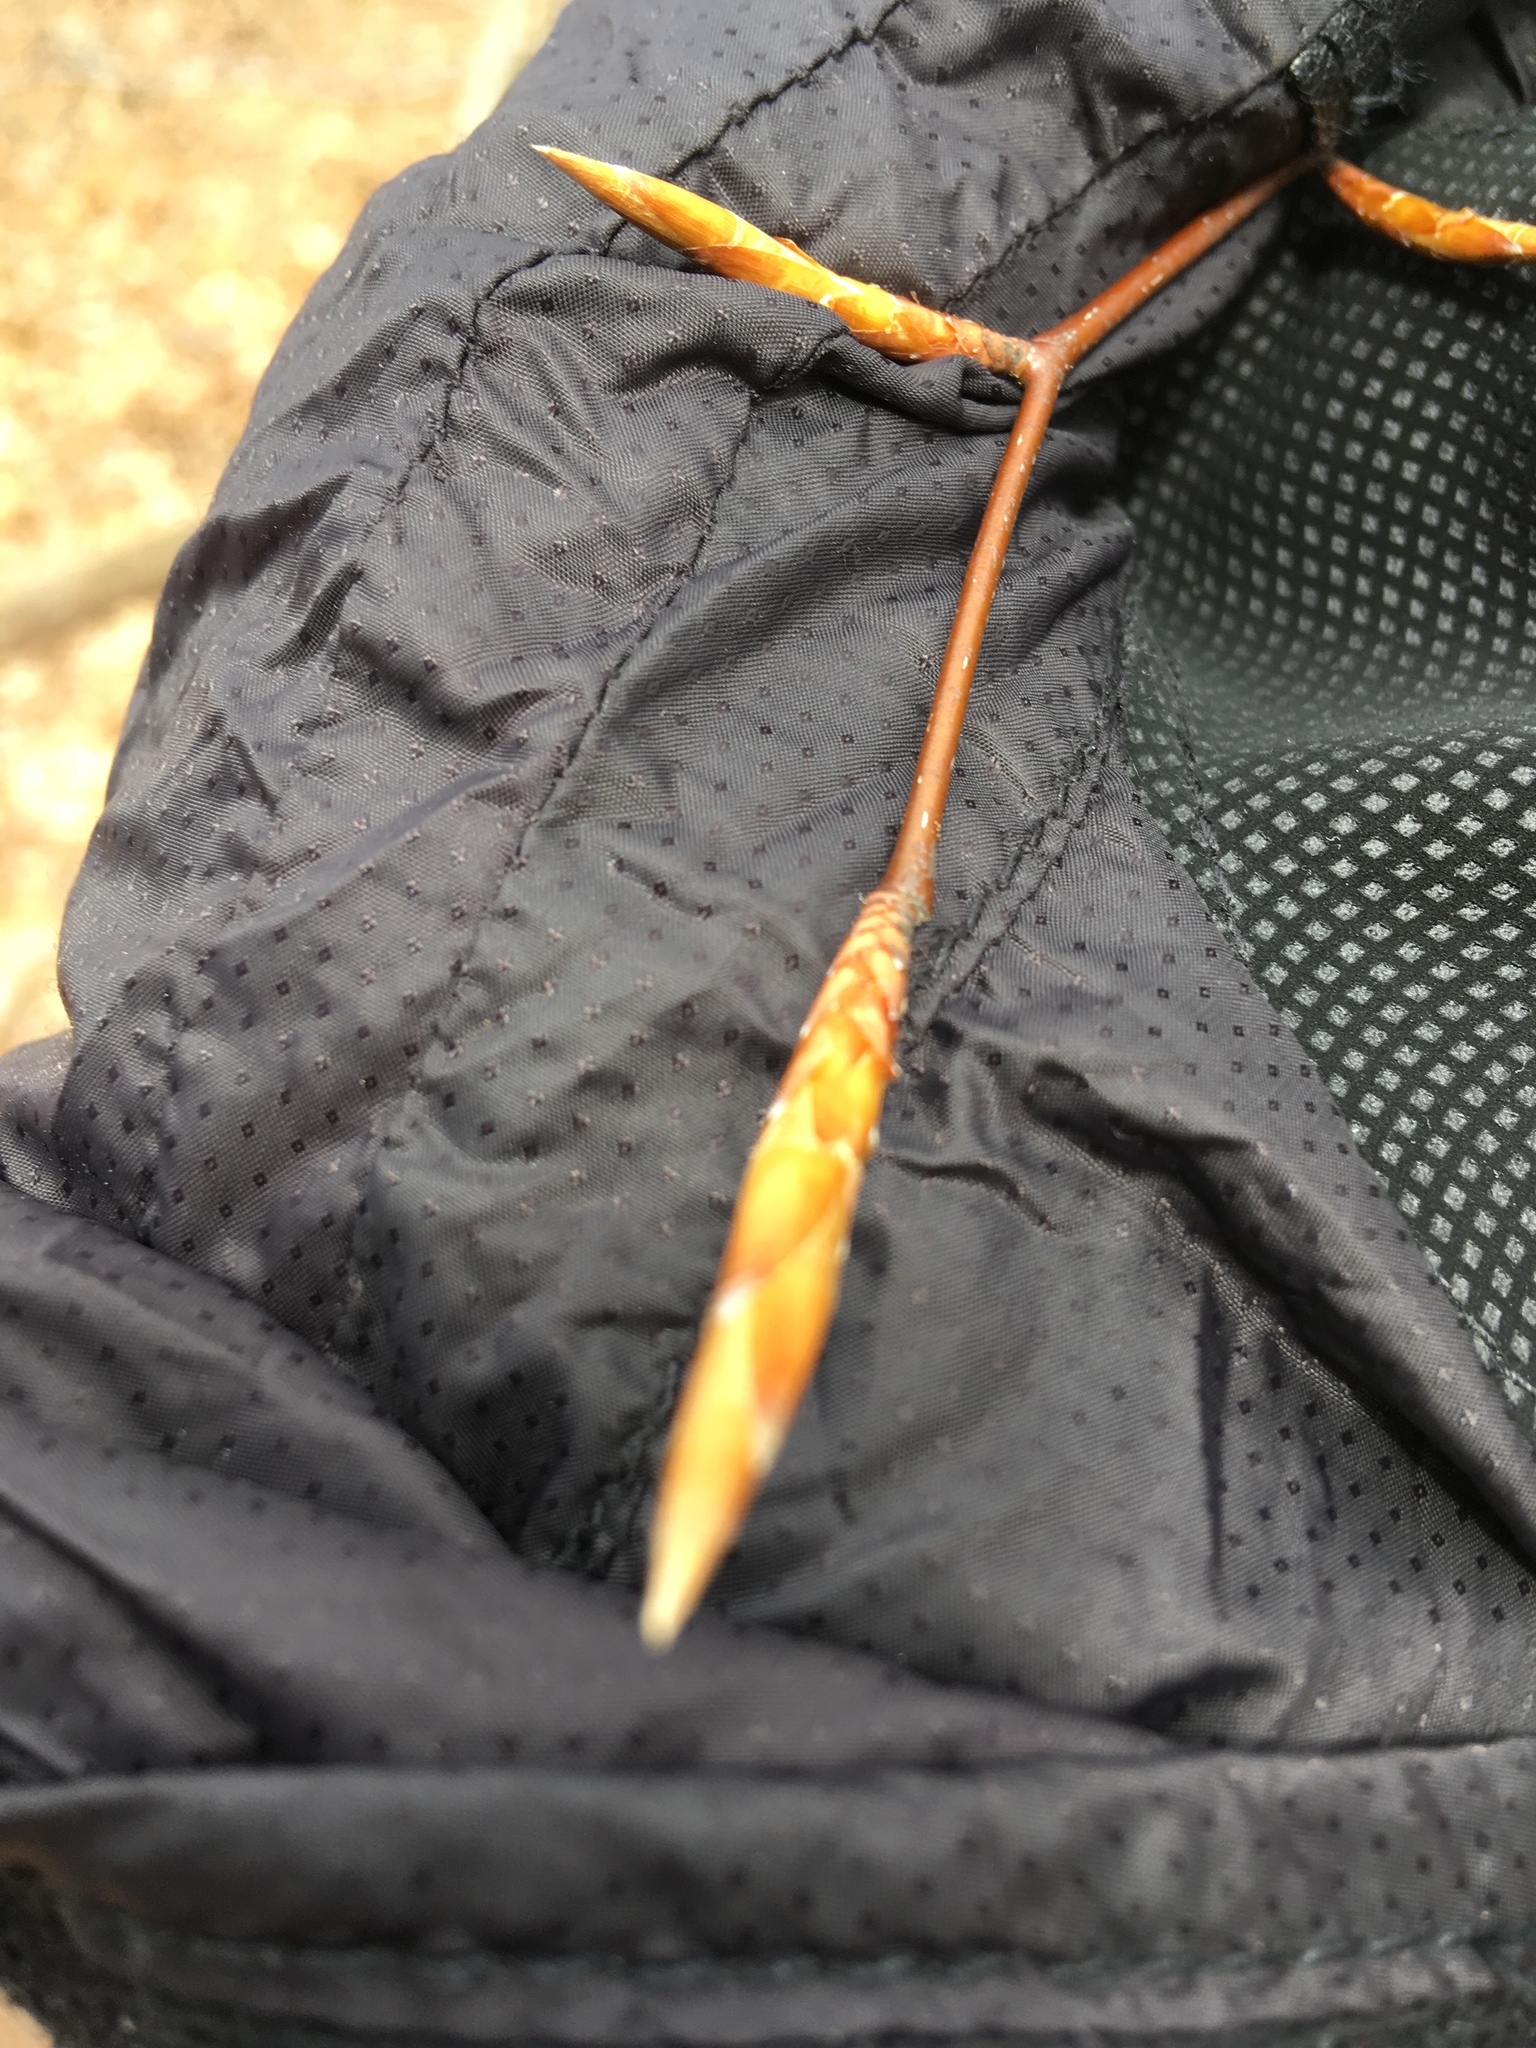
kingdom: Plantae
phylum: Tracheophyta
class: Magnoliopsida
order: Fagales
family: Fagaceae
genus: Fagus
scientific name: Fagus grandifolia
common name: American beech
